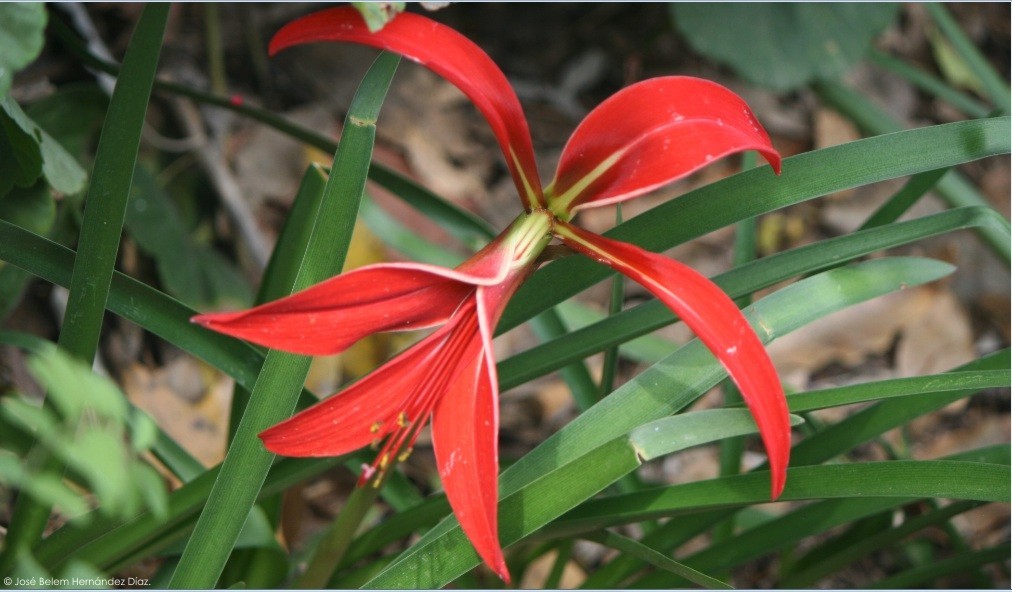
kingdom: Plantae
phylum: Tracheophyta
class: Liliopsida
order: Asparagales
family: Amaryllidaceae
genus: Sprekelia
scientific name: Sprekelia formosissima
